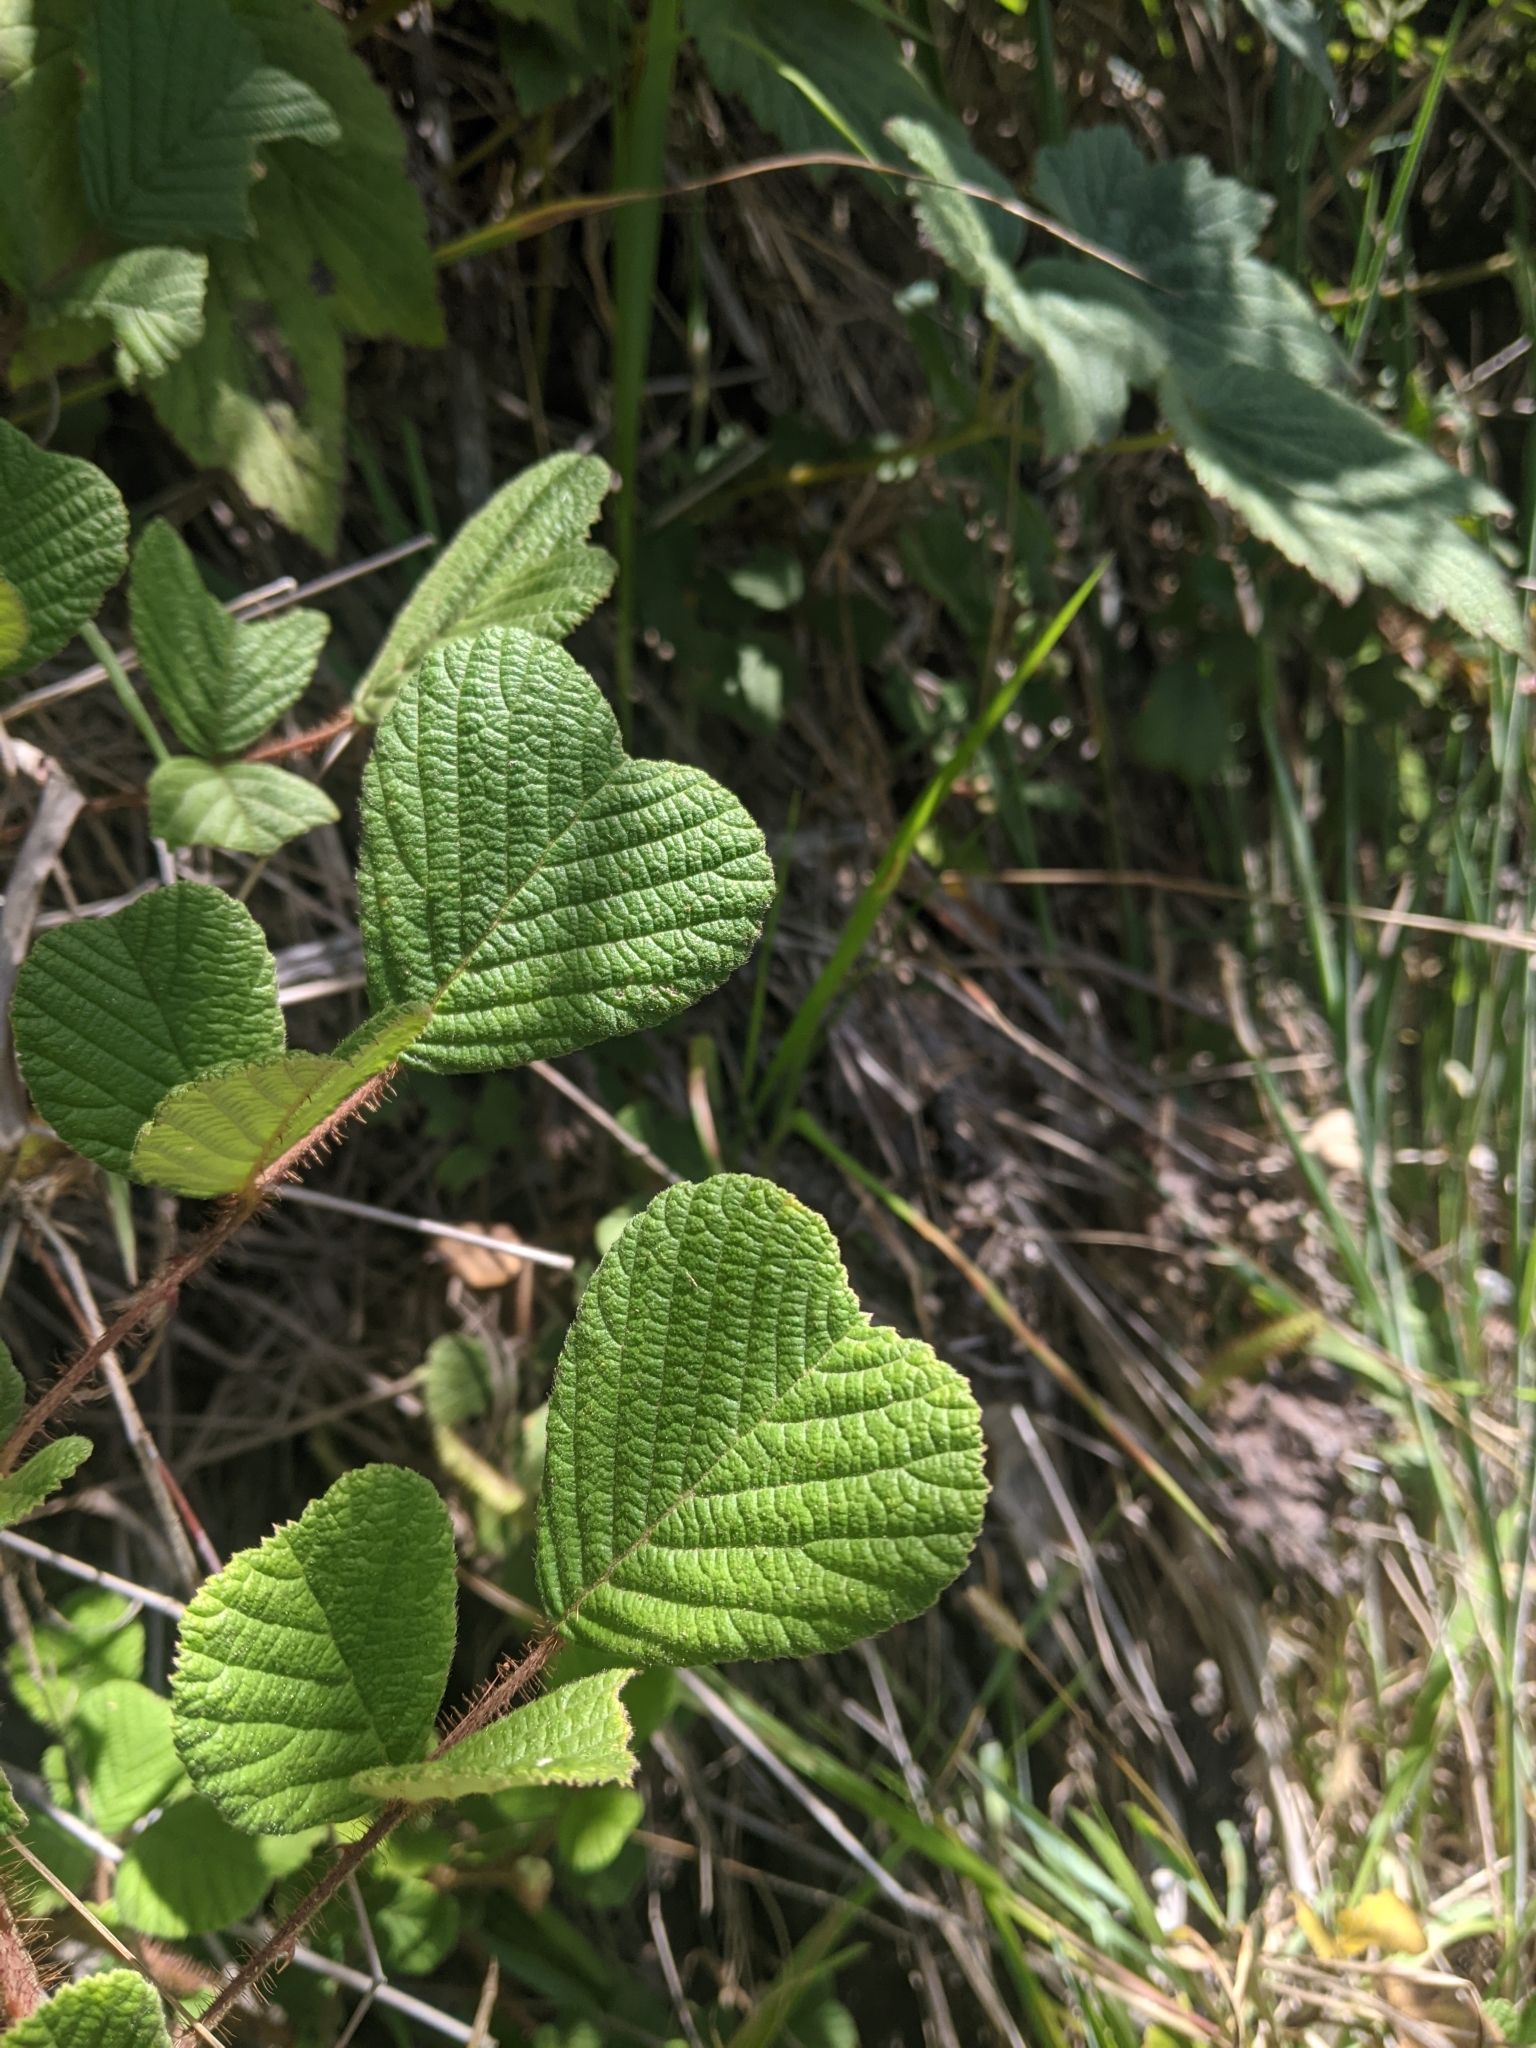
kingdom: Plantae
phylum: Tracheophyta
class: Magnoliopsida
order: Rosales
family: Rosaceae
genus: Rubus
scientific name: Rubus ellipticus
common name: Cheeseberry
